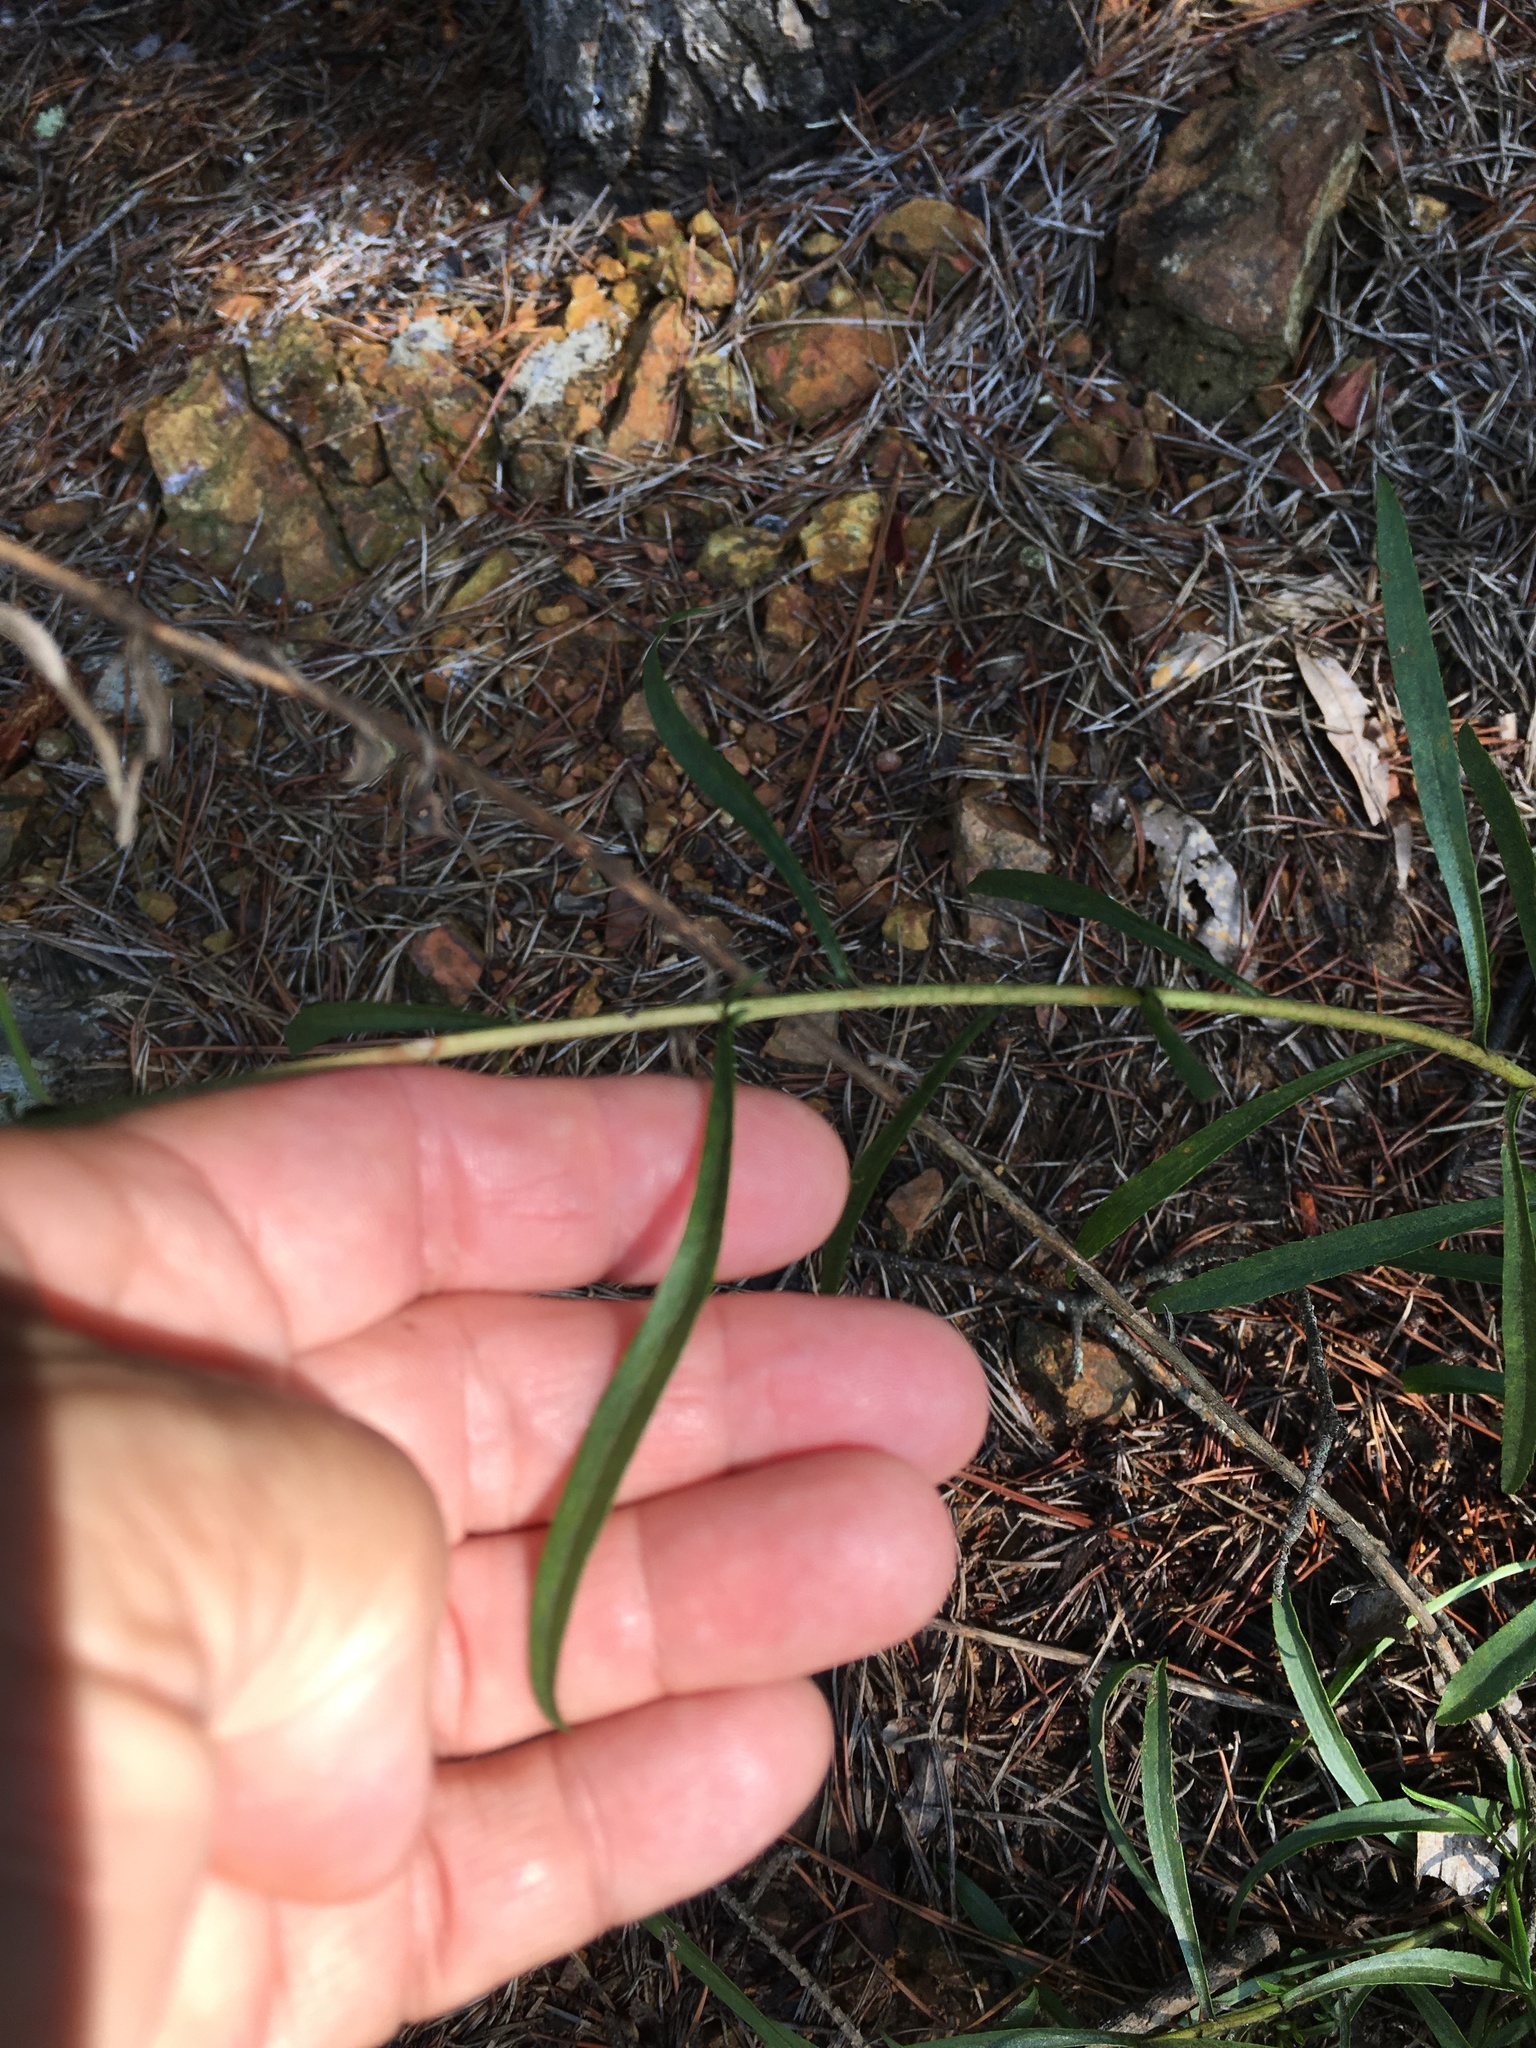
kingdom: Plantae
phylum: Tracheophyta
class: Magnoliopsida
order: Asterales
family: Asteraceae
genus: Solidago
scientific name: Solidago pinetorum
